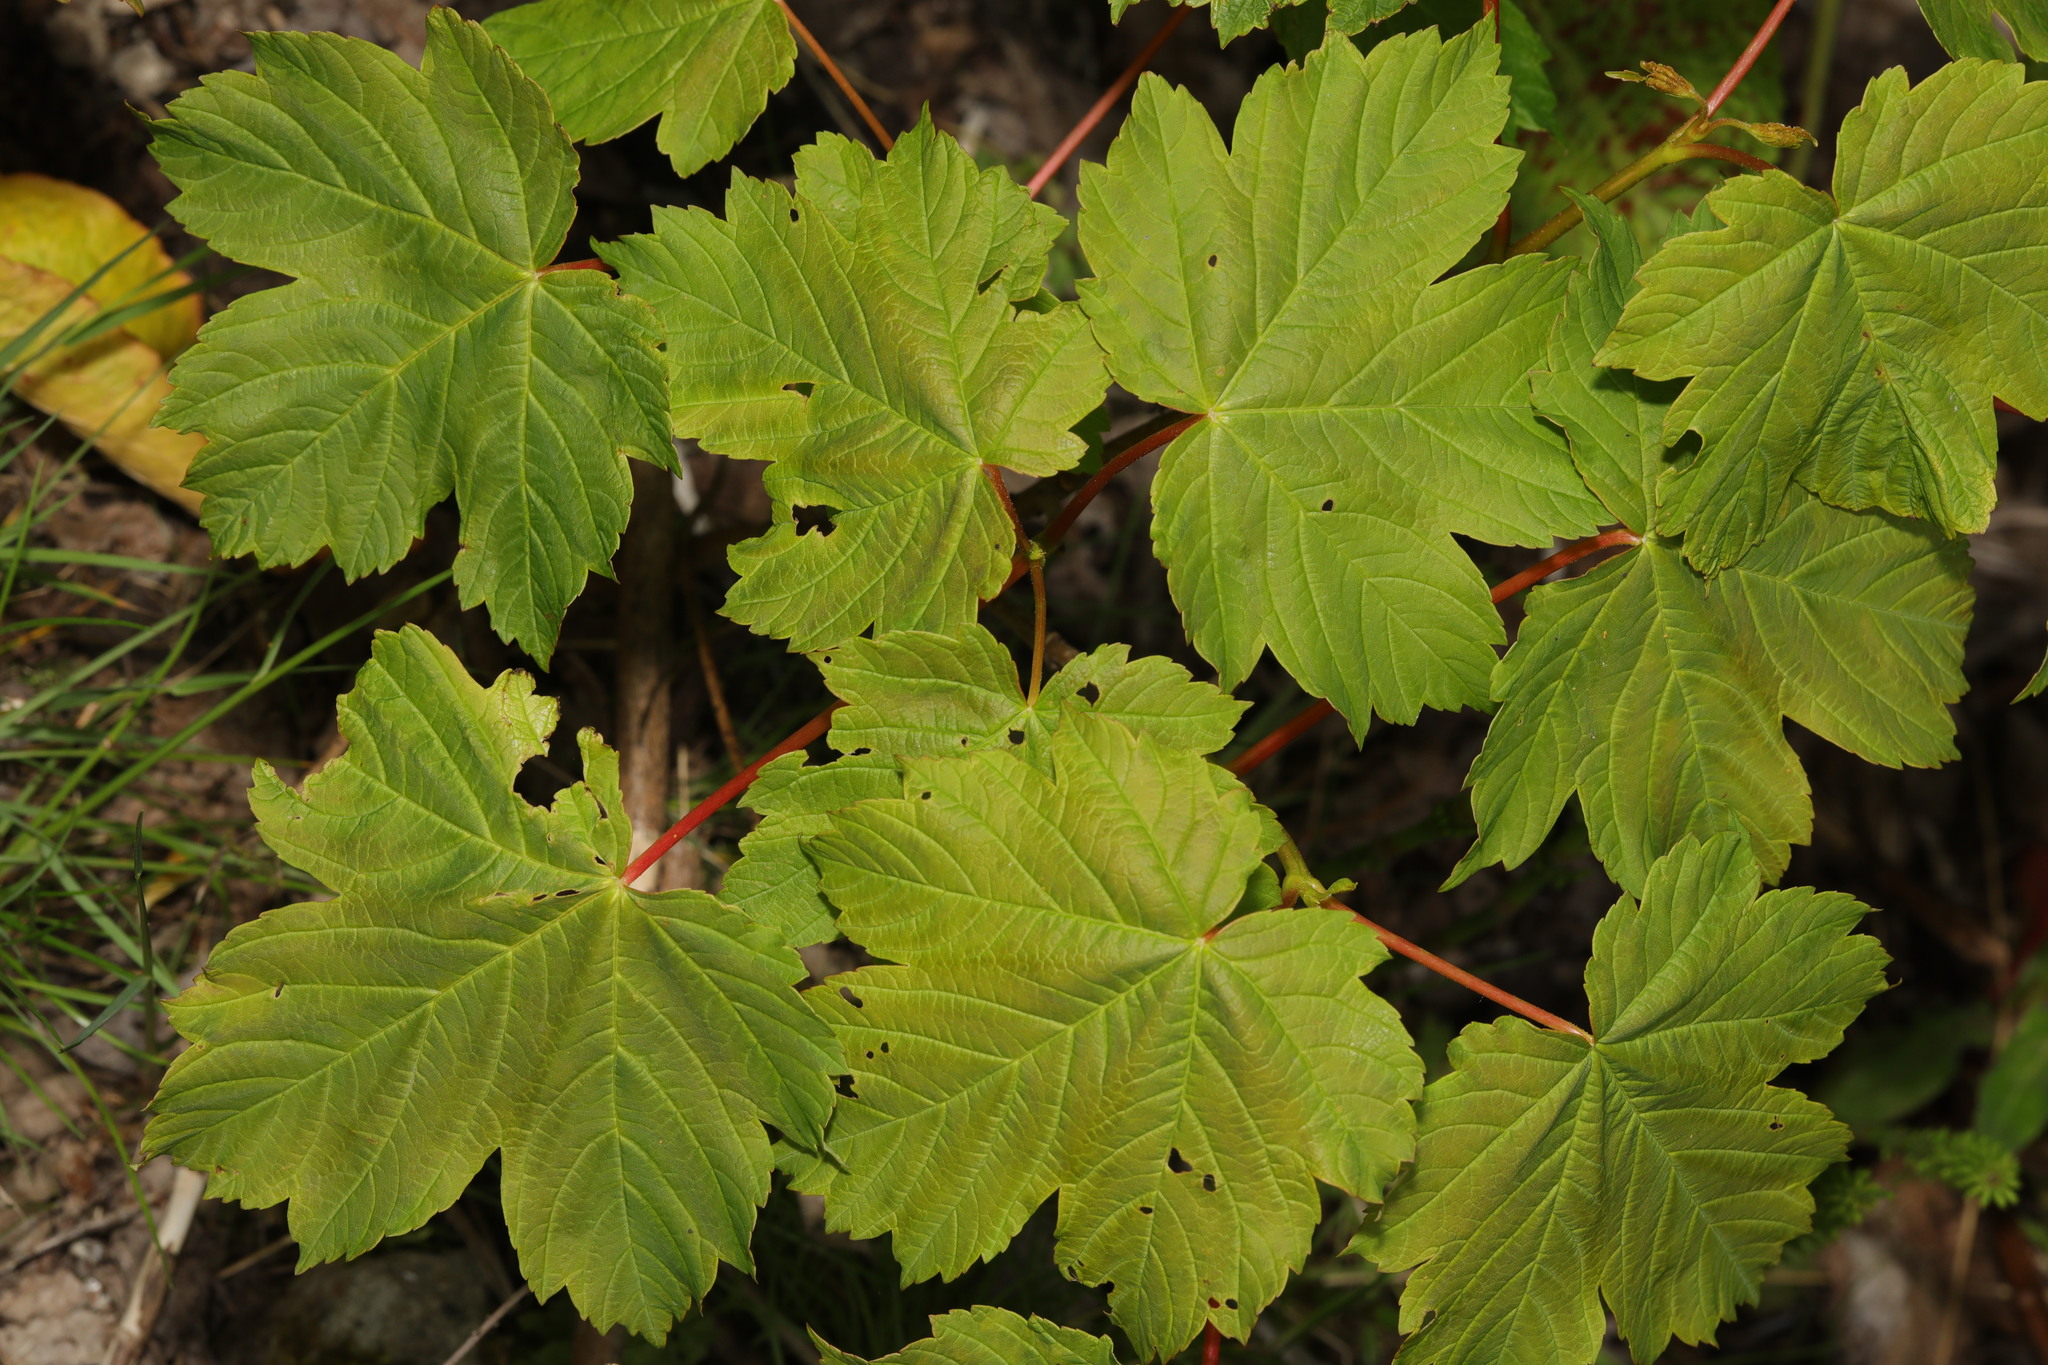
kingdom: Plantae
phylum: Tracheophyta
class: Magnoliopsida
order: Sapindales
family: Sapindaceae
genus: Acer
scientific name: Acer pseudoplatanus
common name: Sycamore
